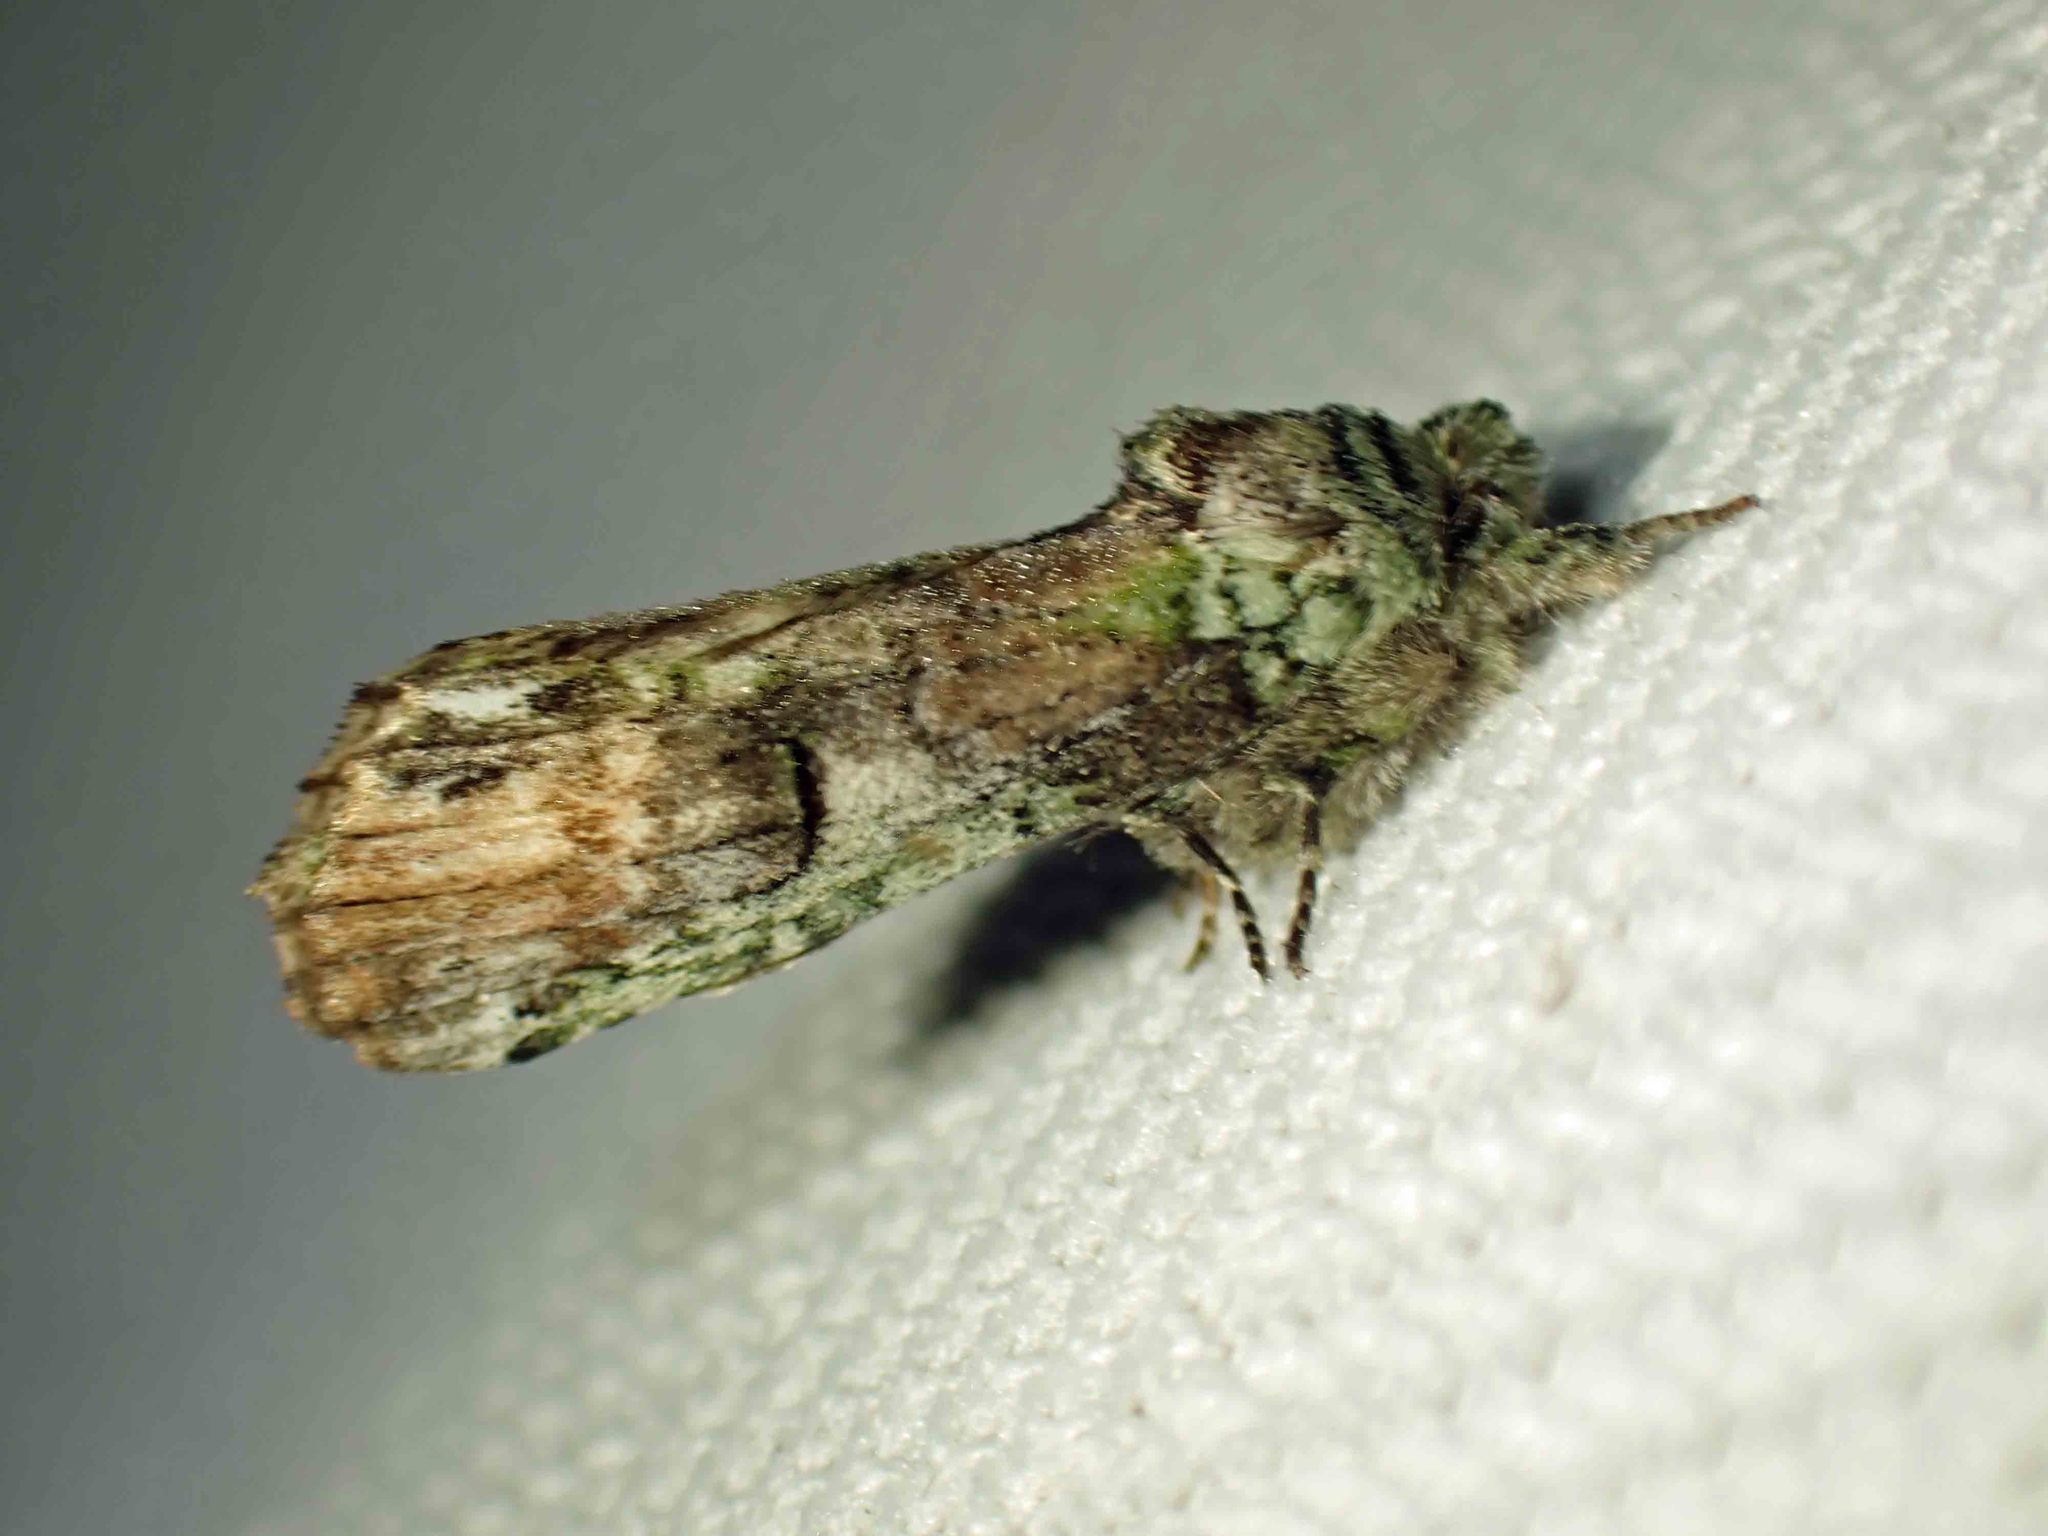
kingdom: Animalia
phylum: Arthropoda
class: Insecta
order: Lepidoptera
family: Notodontidae
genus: Schizura
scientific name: Schizura
